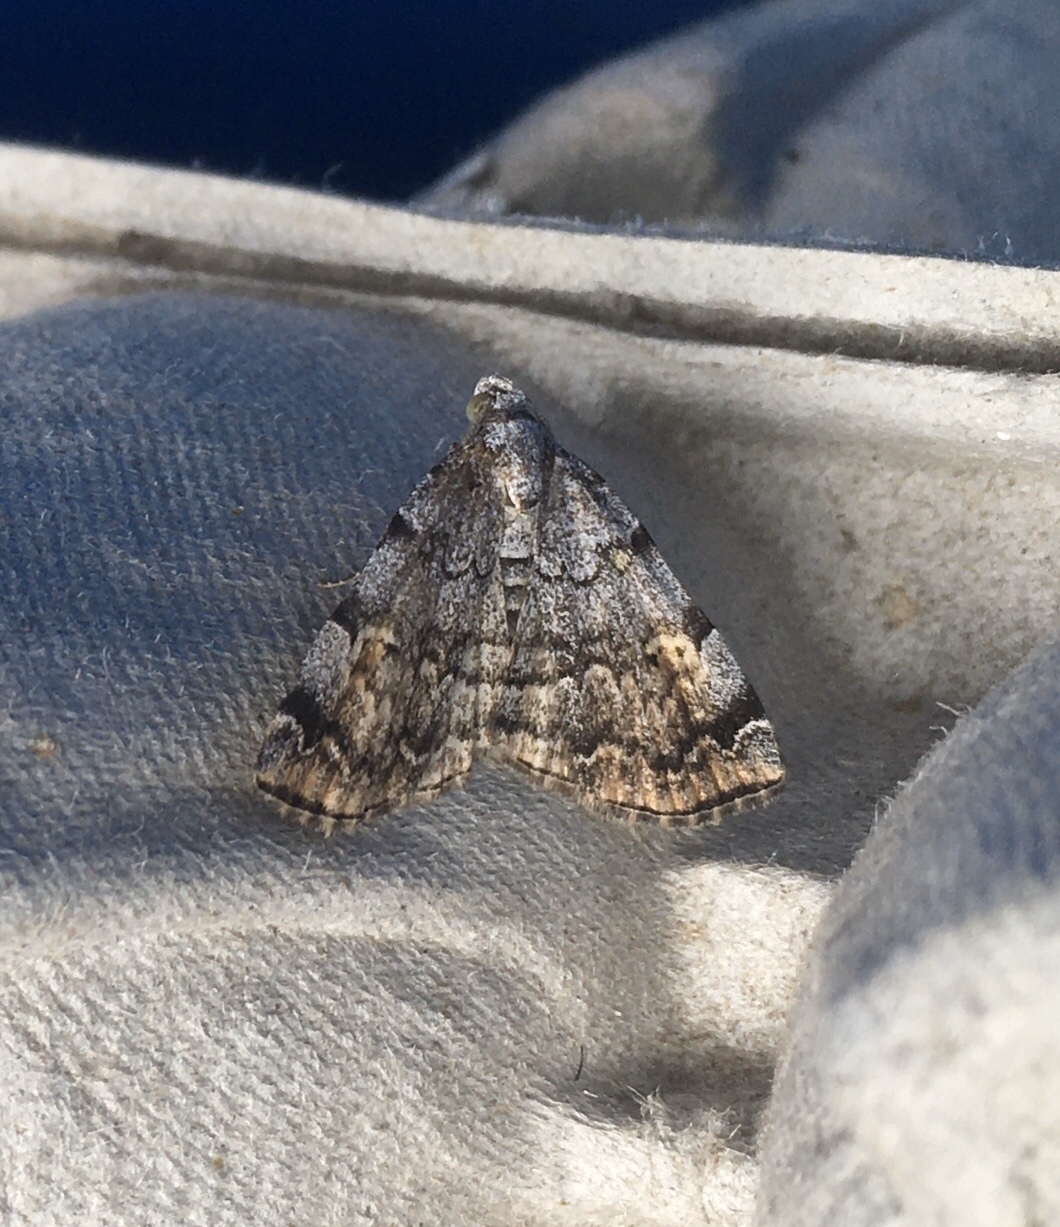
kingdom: Animalia
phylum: Arthropoda
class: Insecta
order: Lepidoptera
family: Erebidae
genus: Idia
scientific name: Idia americalis
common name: American idia moth
